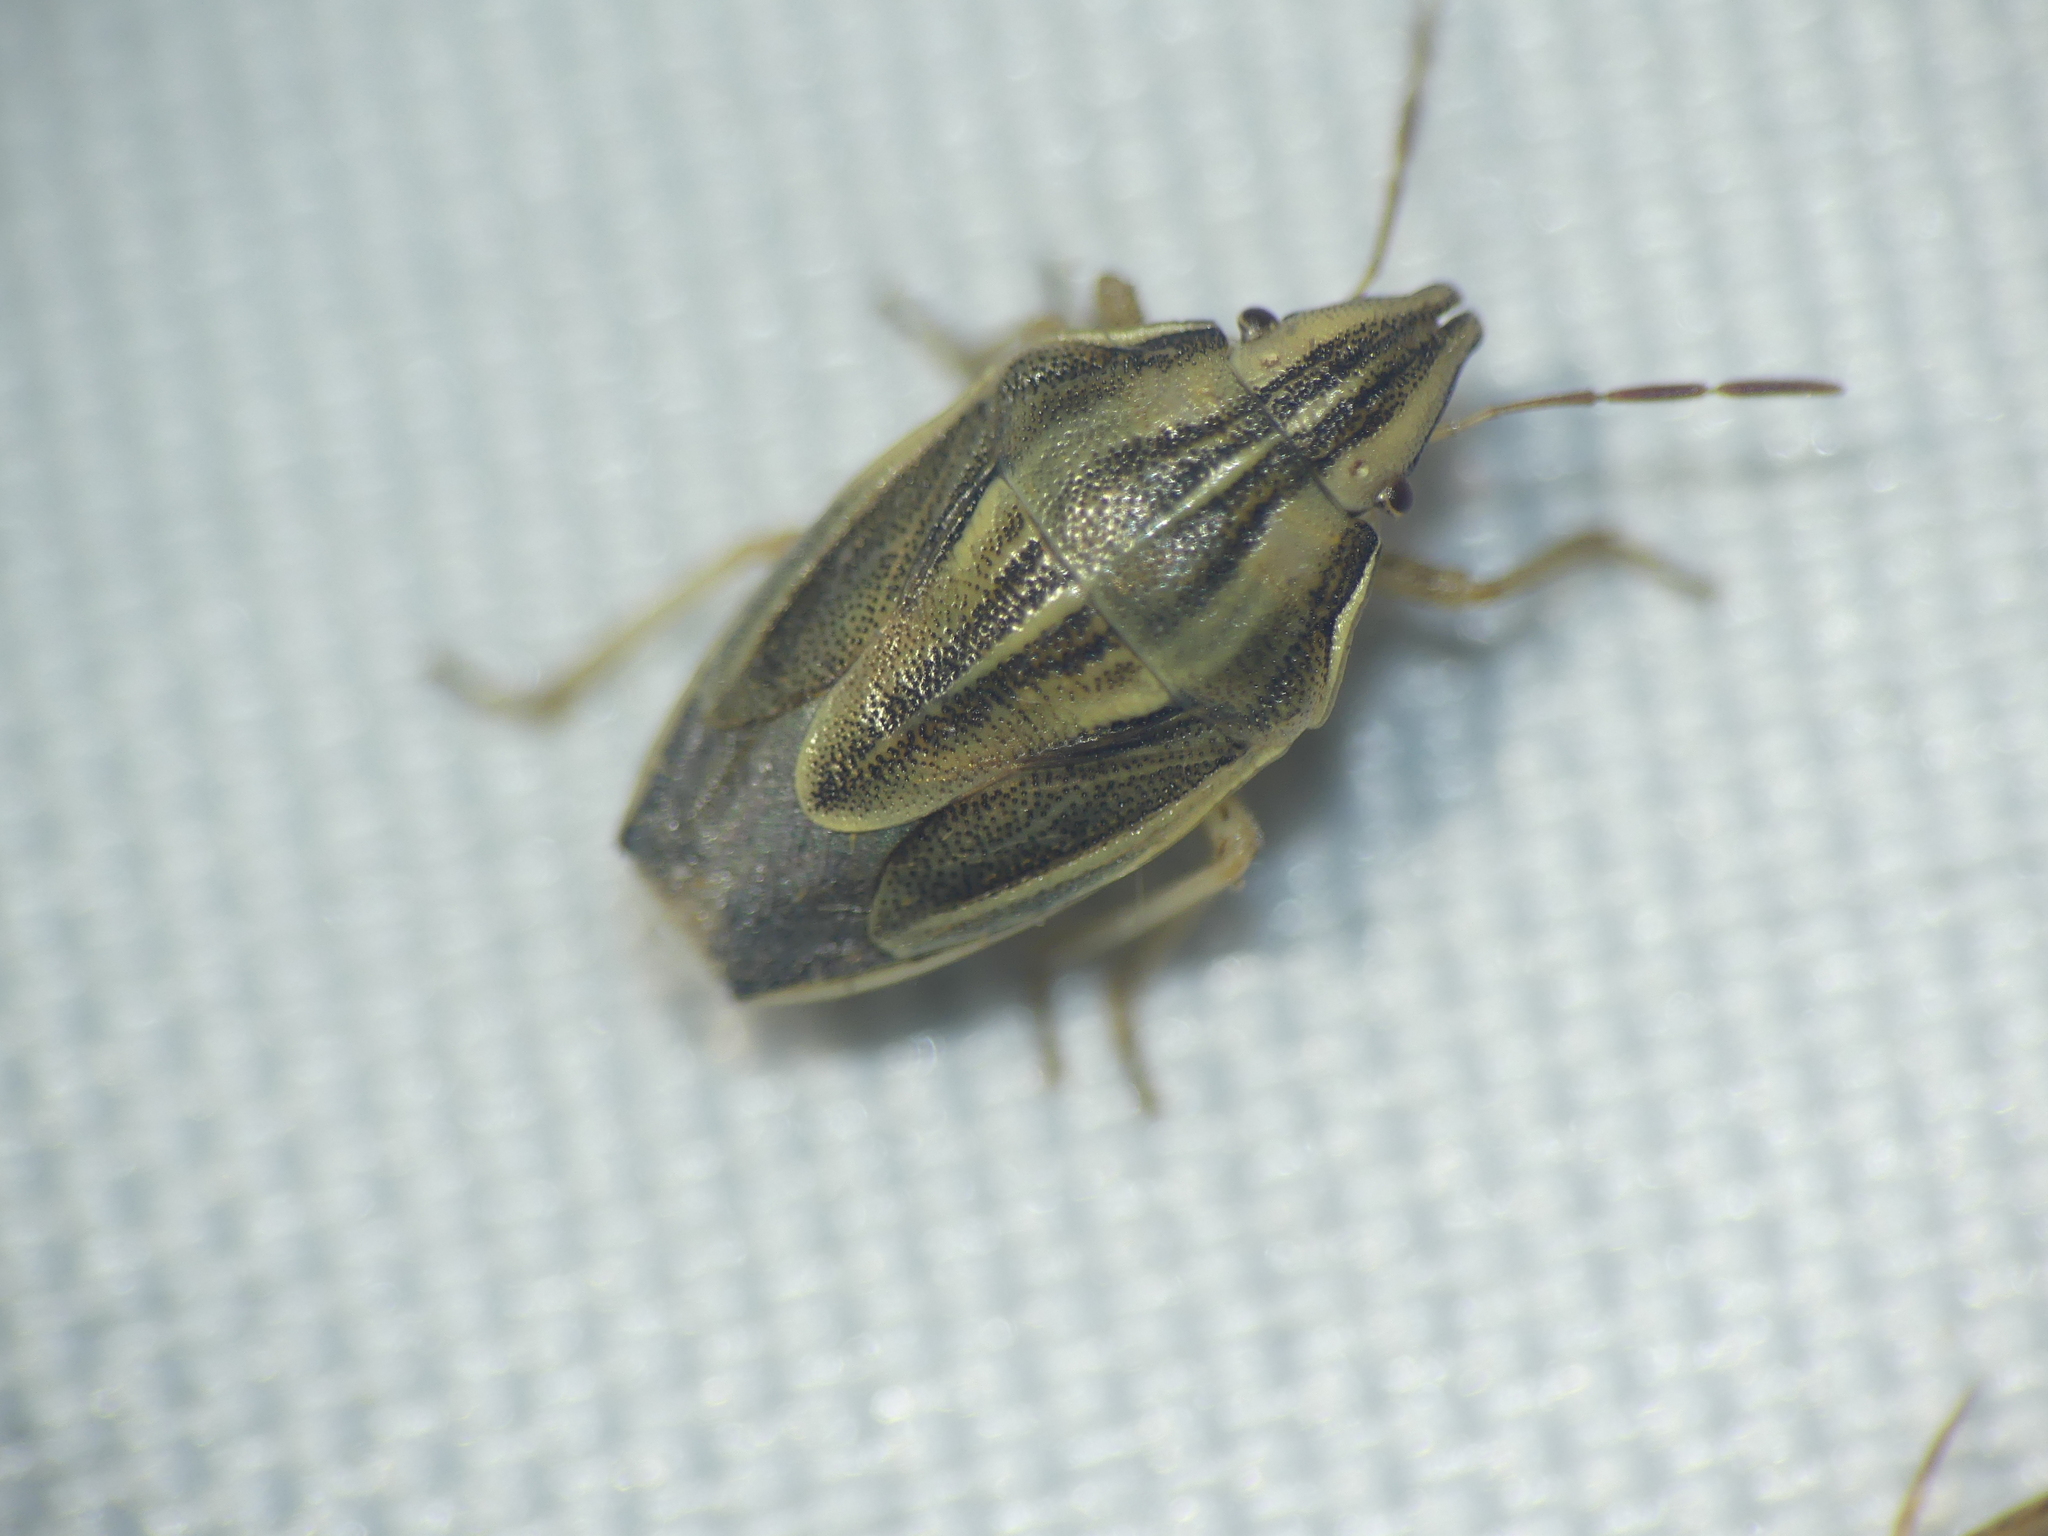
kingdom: Animalia
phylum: Arthropoda
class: Insecta
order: Hemiptera
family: Pentatomidae
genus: Aelia
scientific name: Aelia acuminata
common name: Bishop's mitre
